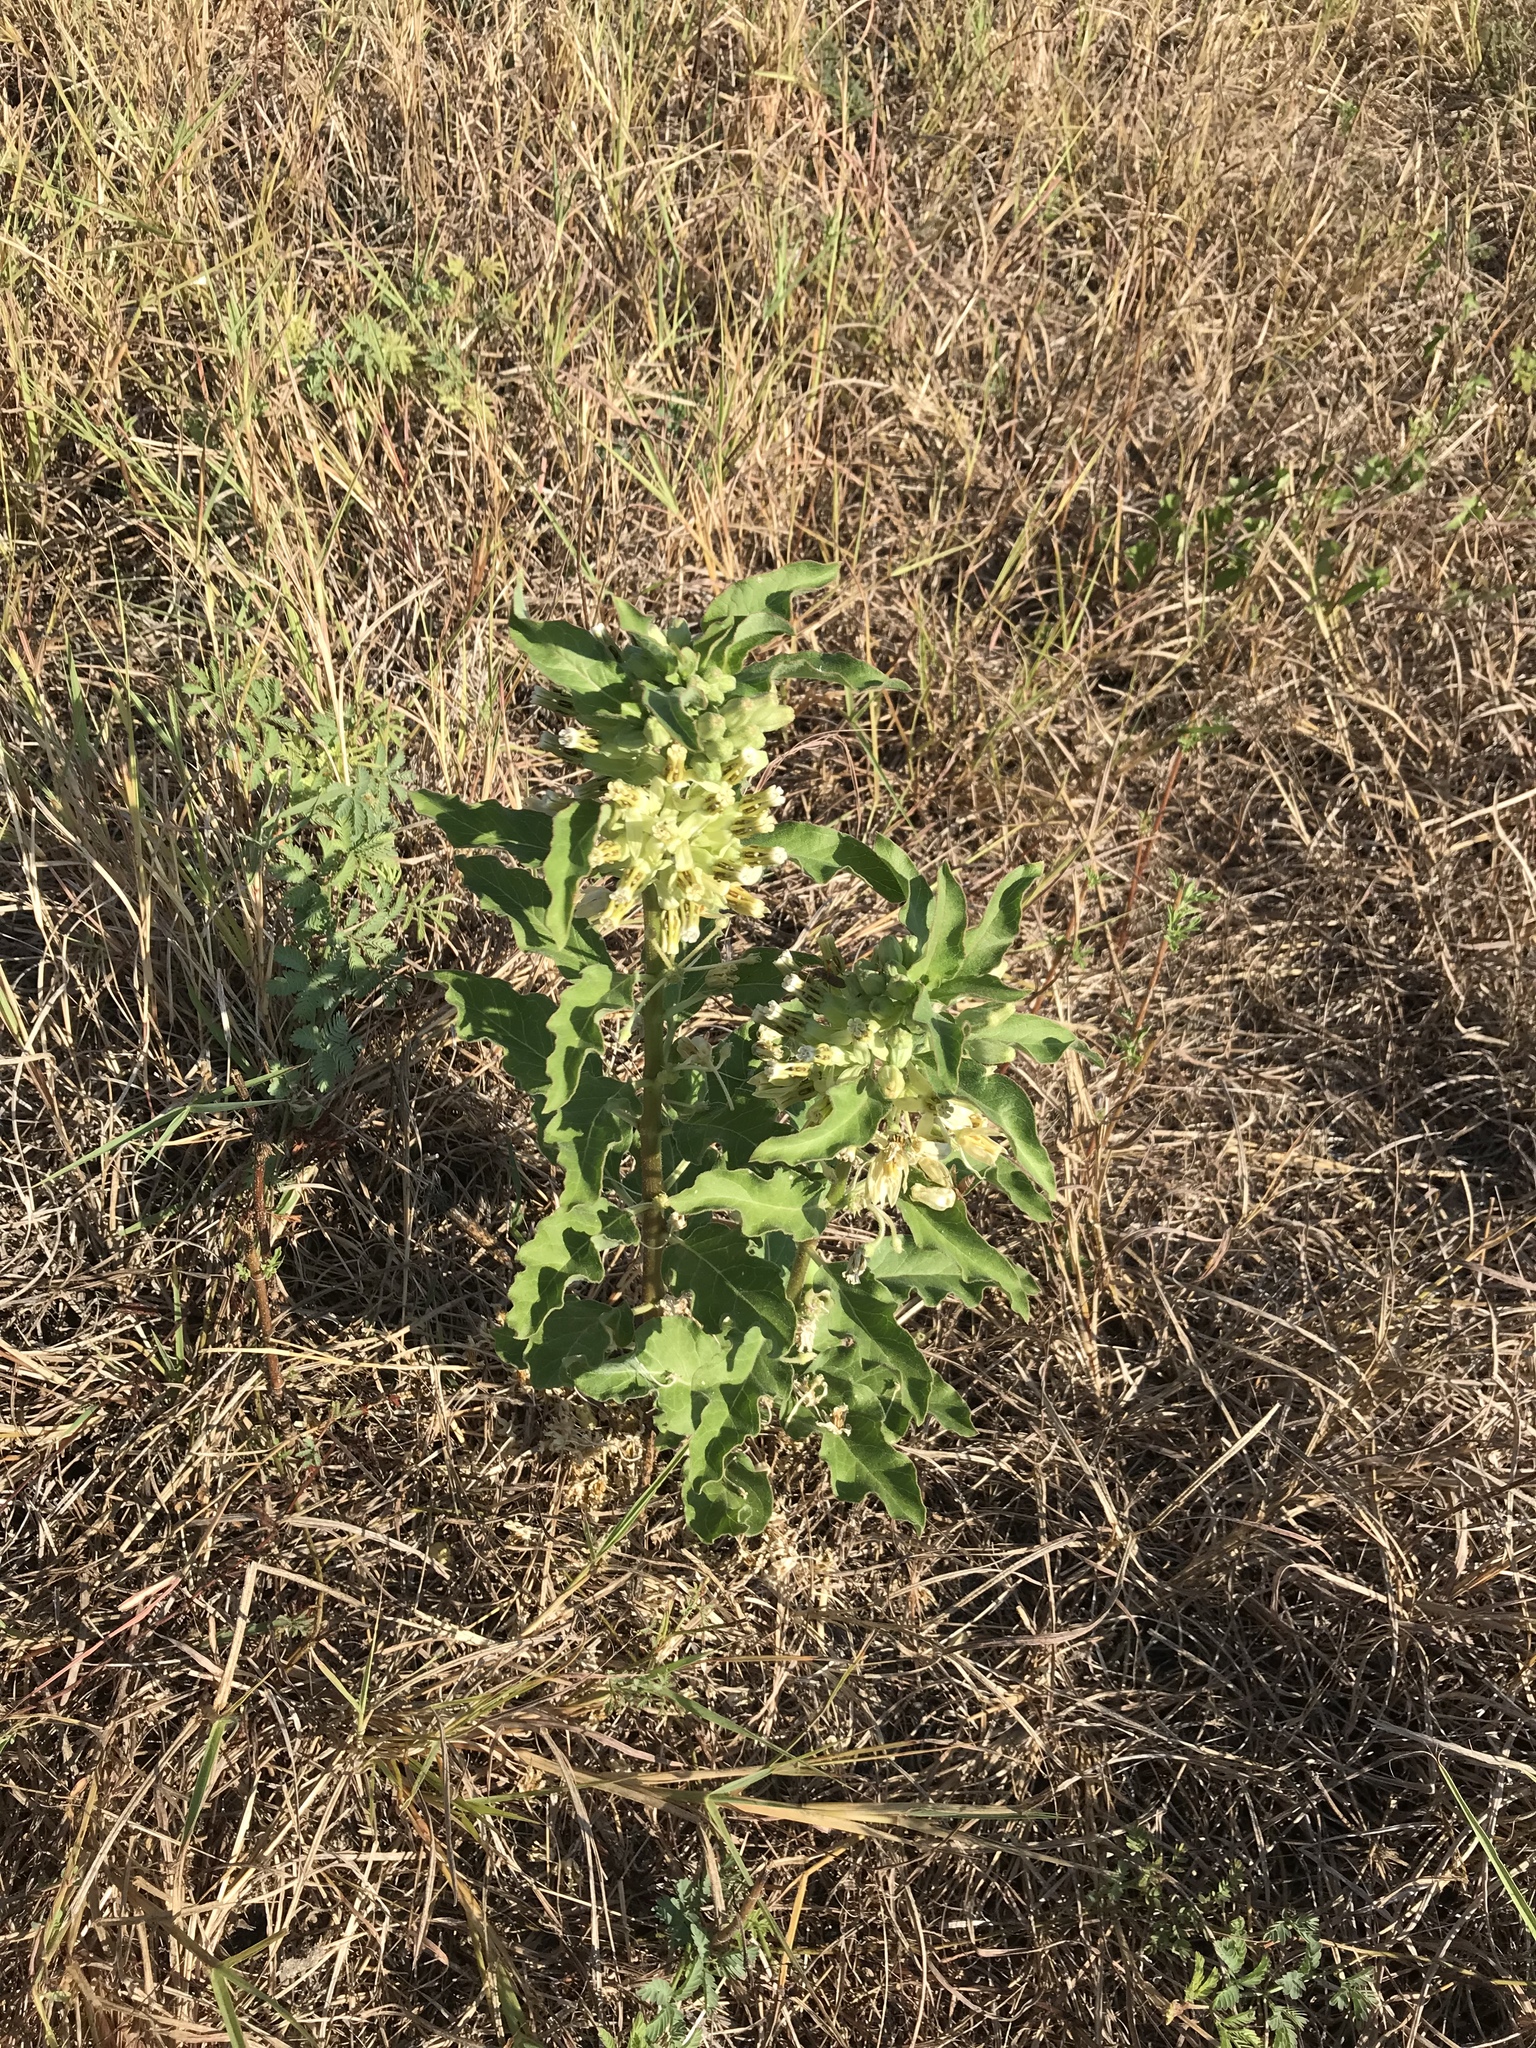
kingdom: Plantae
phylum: Tracheophyta
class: Magnoliopsida
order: Gentianales
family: Apocynaceae
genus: Asclepias
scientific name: Asclepias oenotheroides
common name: Zizotes milkweed
